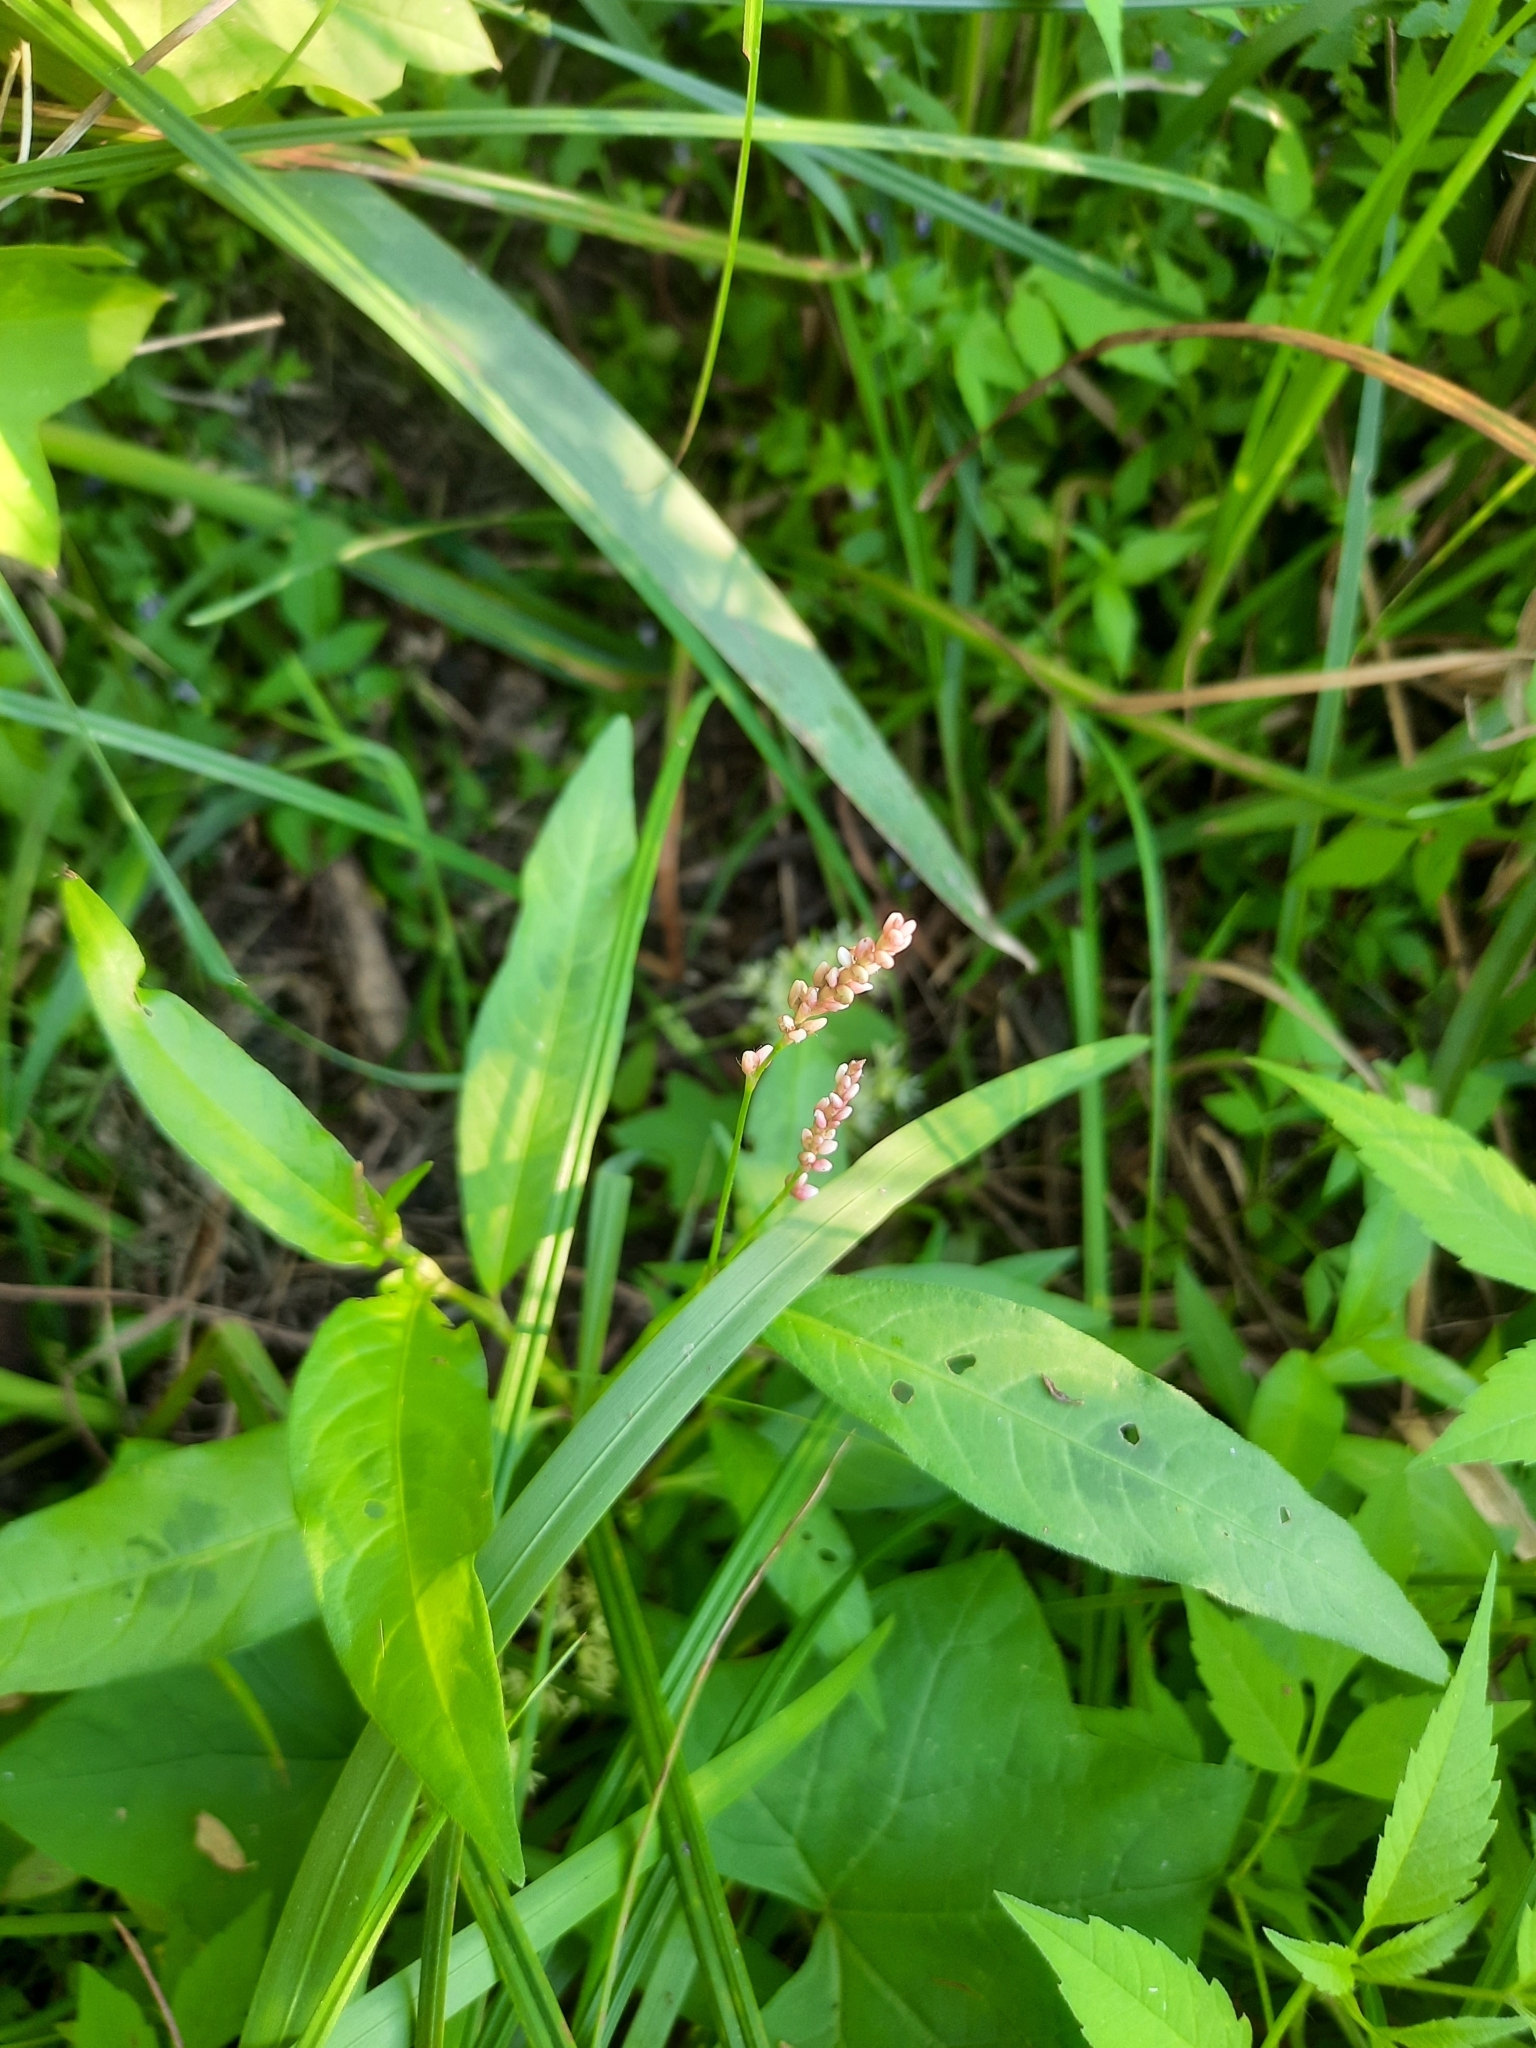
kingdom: Plantae
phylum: Tracheophyta
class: Magnoliopsida
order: Caryophyllales
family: Polygonaceae
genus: Persicaria
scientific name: Persicaria maculosa
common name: Redshank
